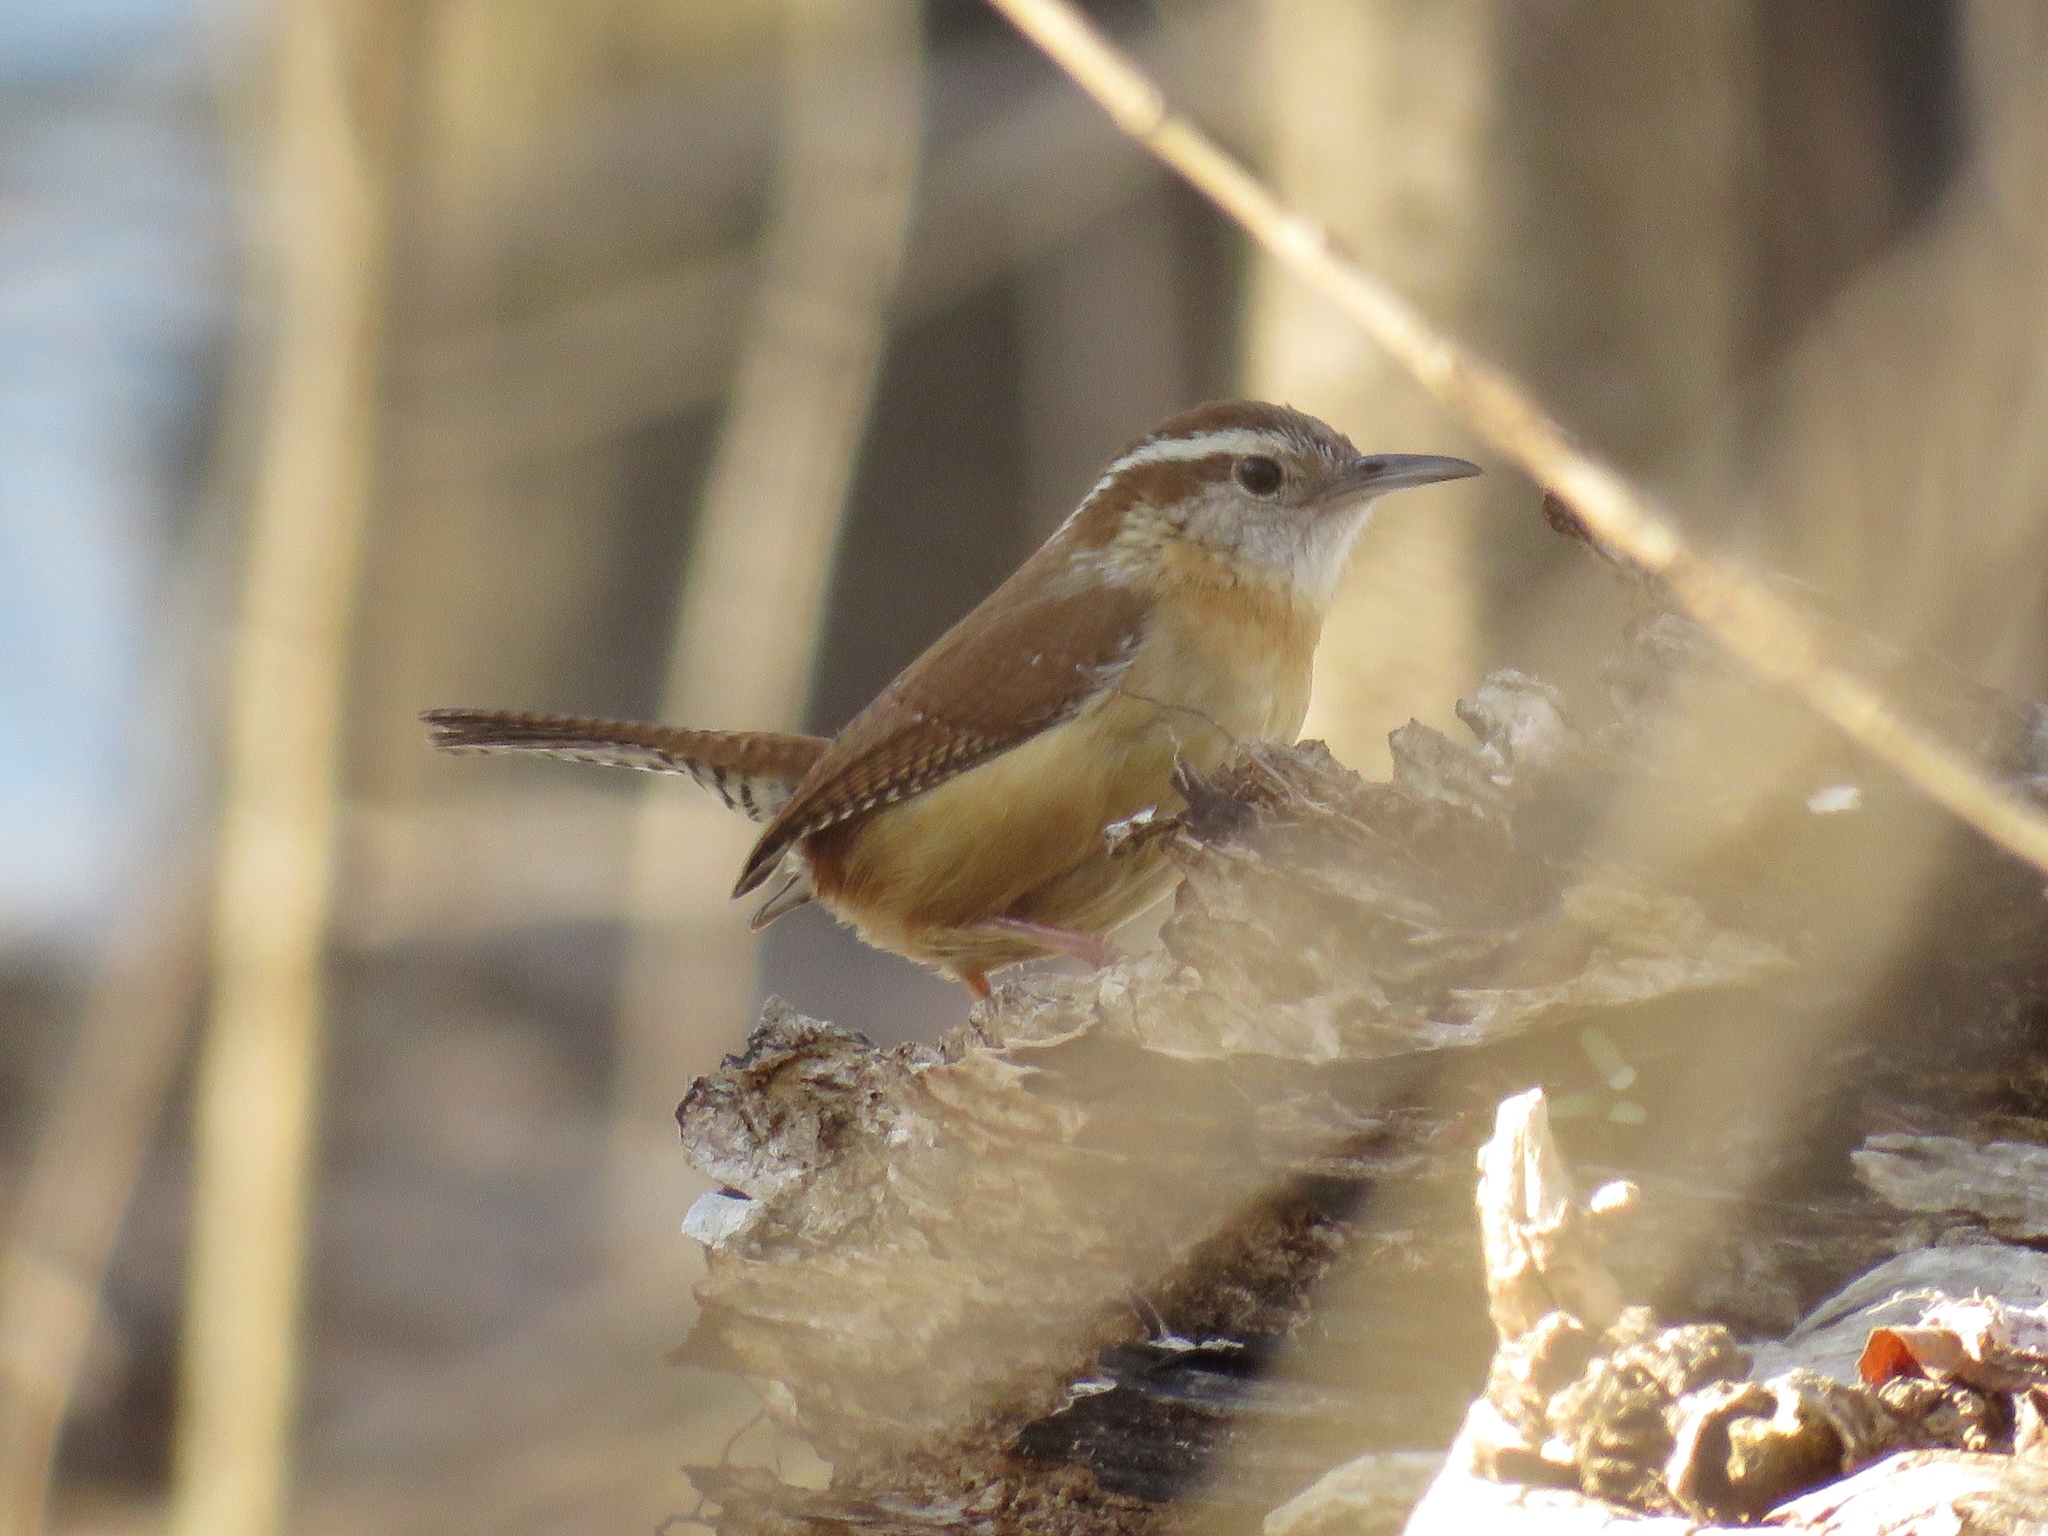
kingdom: Animalia
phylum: Chordata
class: Aves
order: Passeriformes
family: Troglodytidae
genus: Thryothorus
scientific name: Thryothorus ludovicianus
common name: Carolina wren
